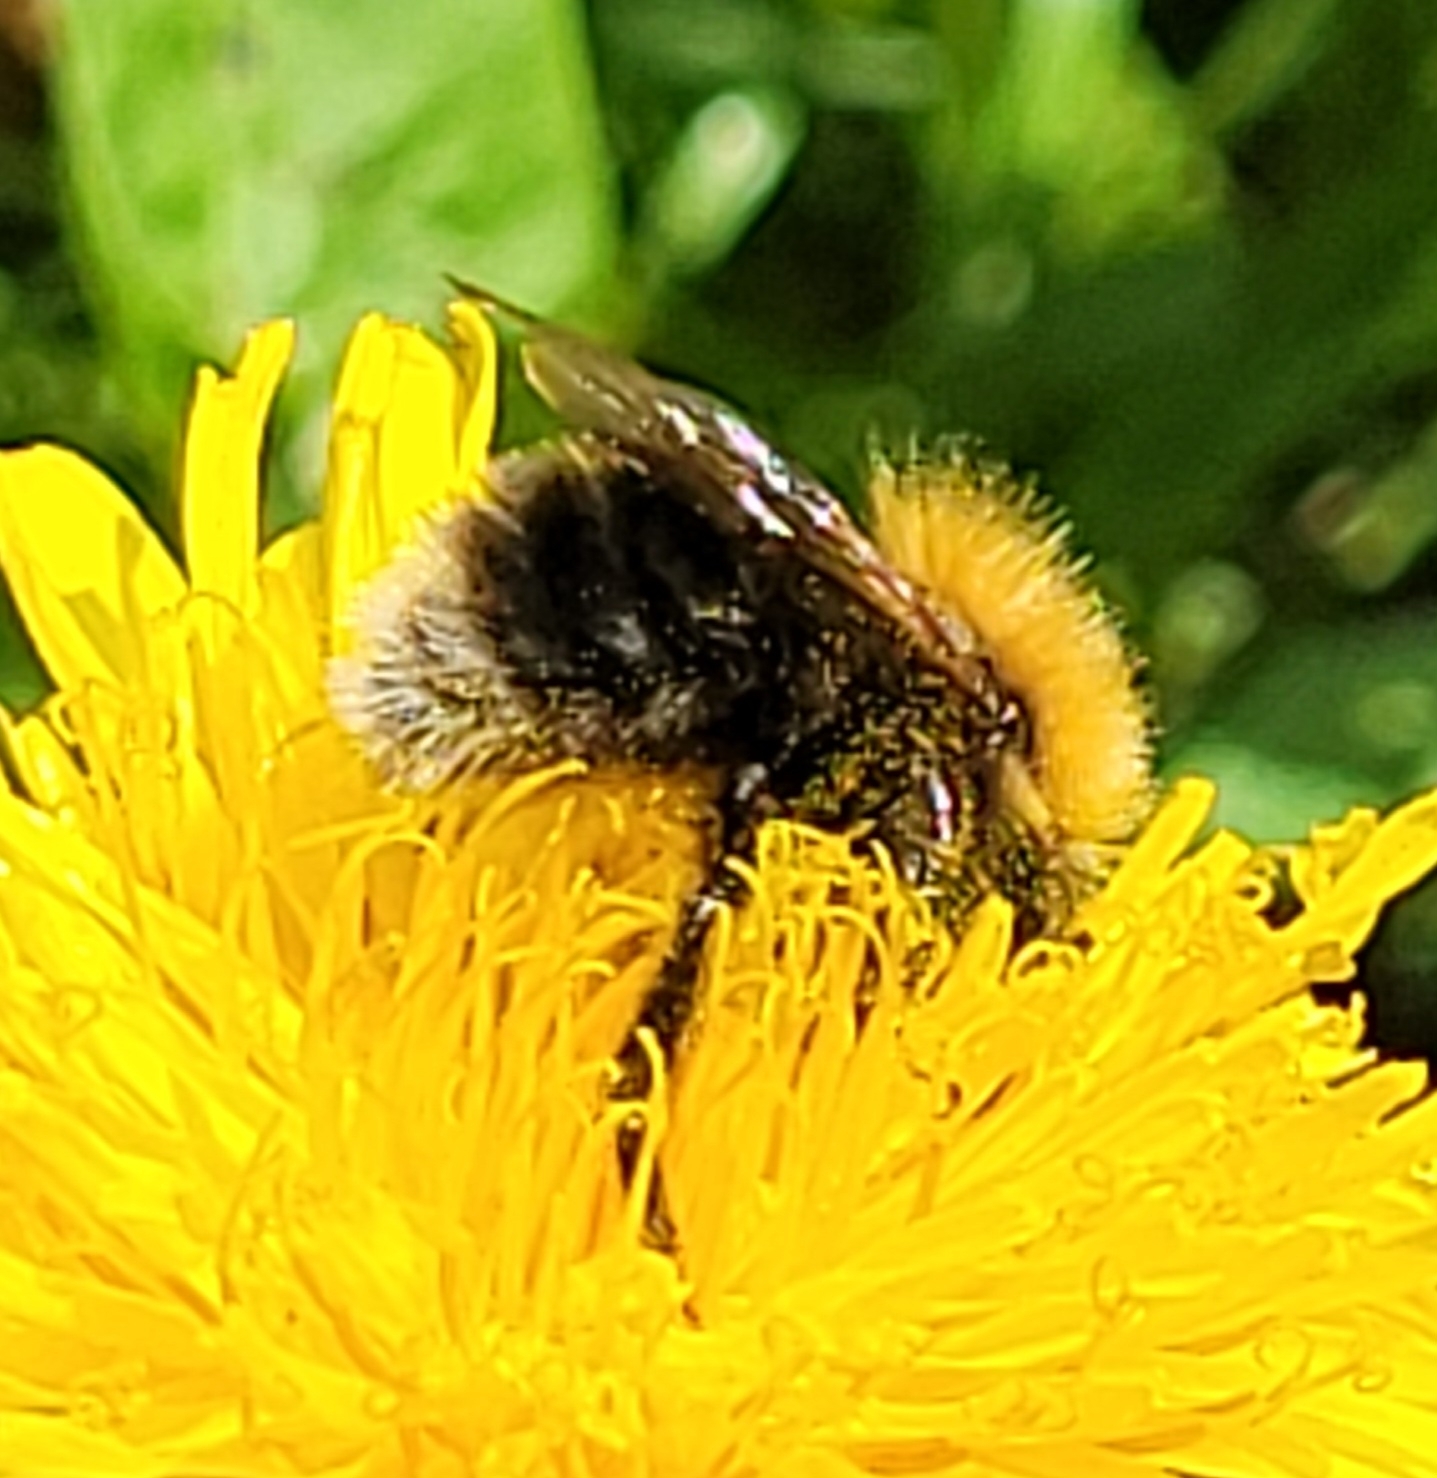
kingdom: Animalia
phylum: Arthropoda
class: Insecta
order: Hymenoptera
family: Apidae
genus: Bombus
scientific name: Bombus hypnorum
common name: New garden bumblebee
